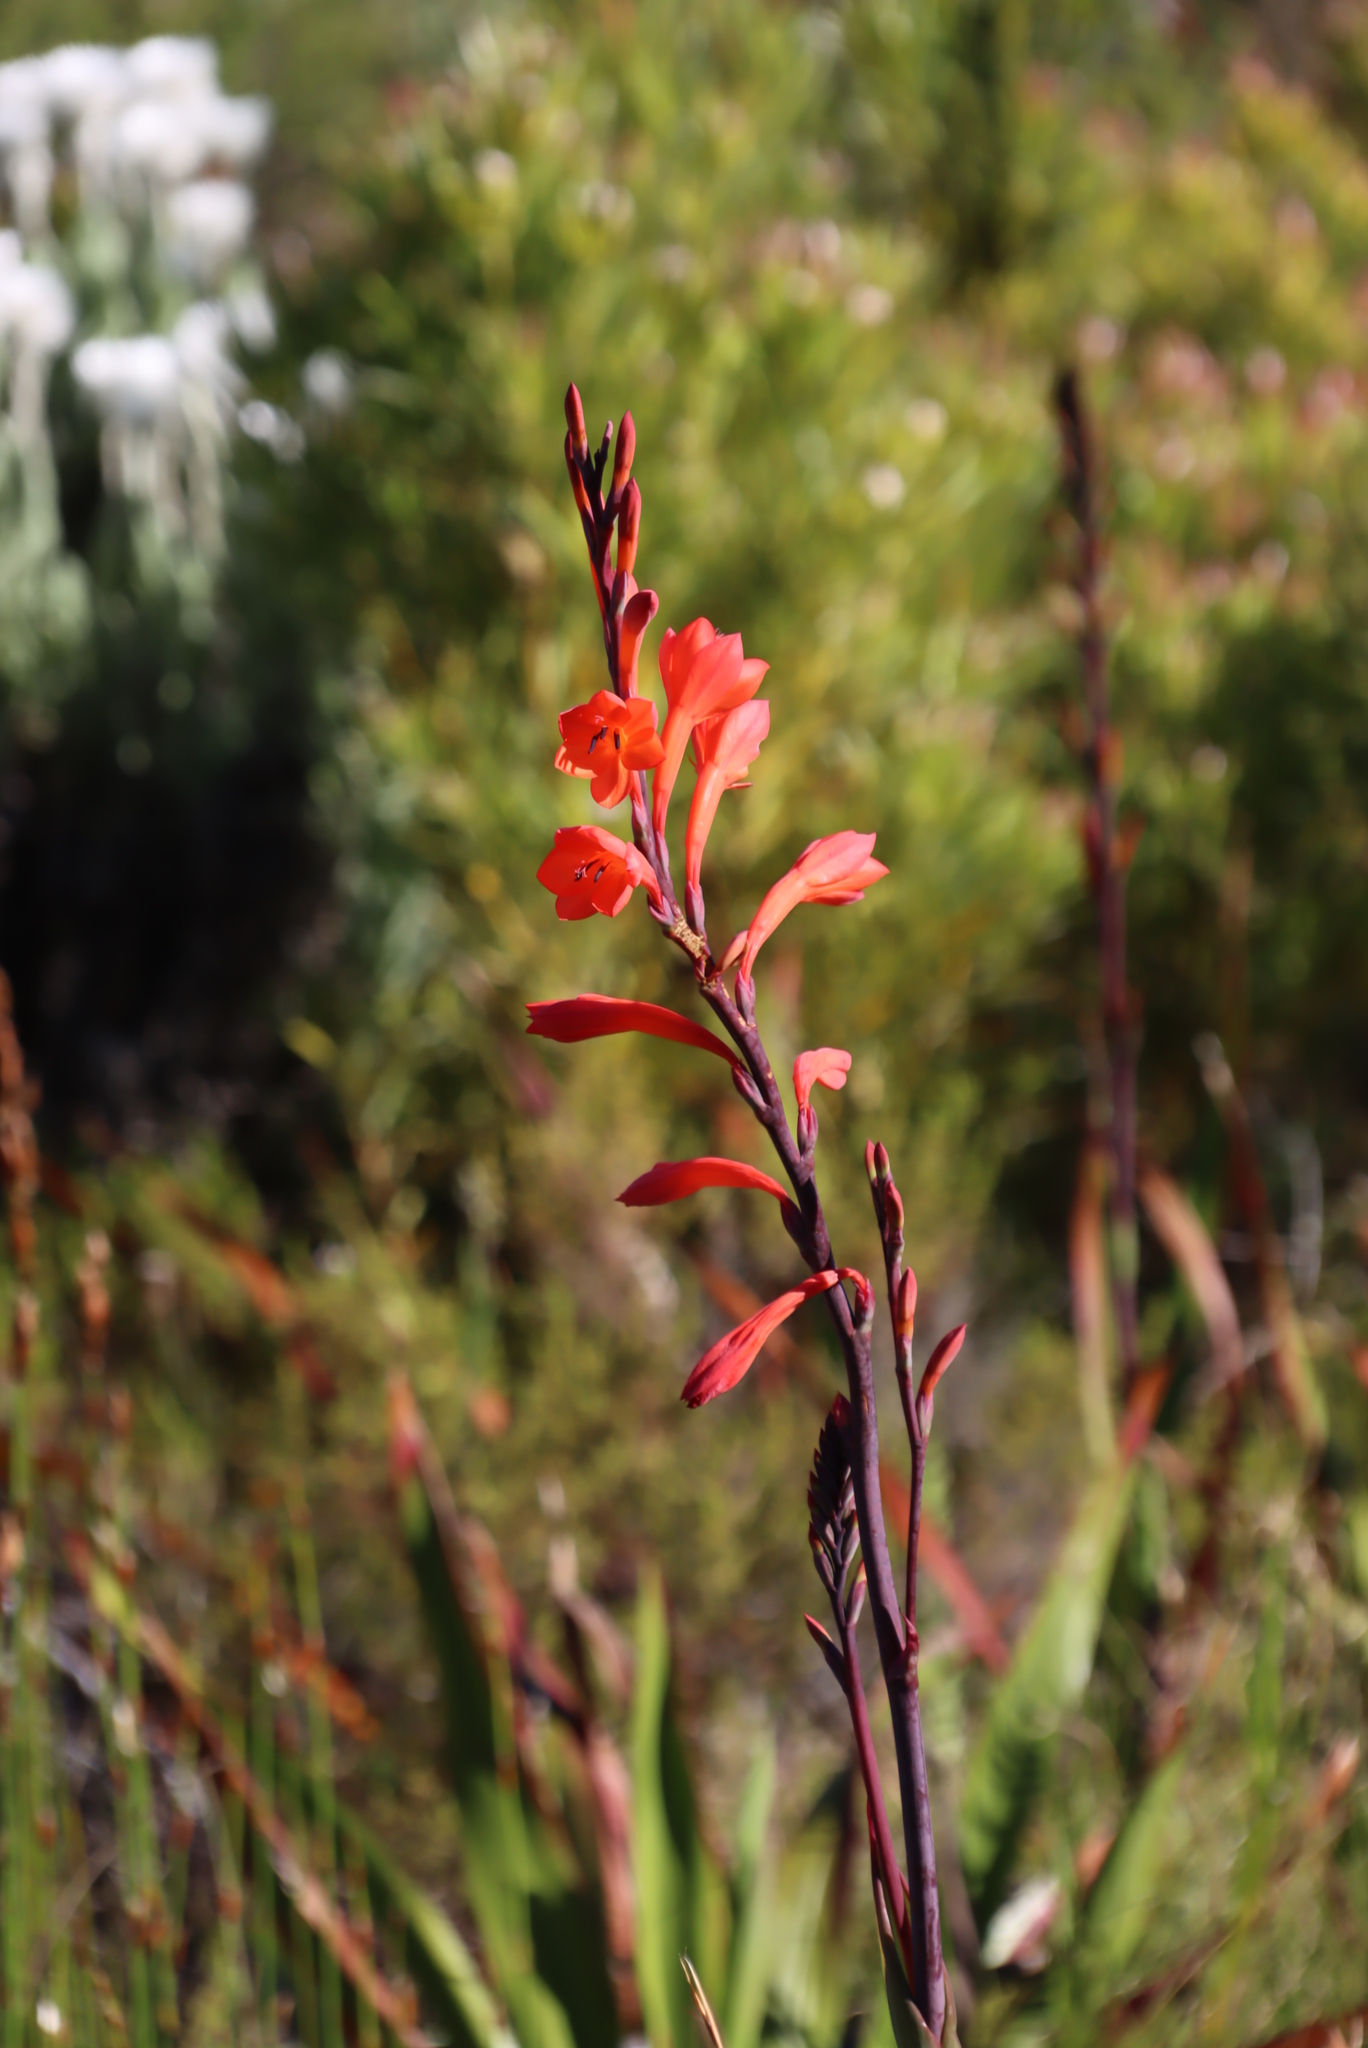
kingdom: Plantae
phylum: Tracheophyta
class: Liliopsida
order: Asparagales
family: Iridaceae
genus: Watsonia
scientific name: Watsonia tabularis
